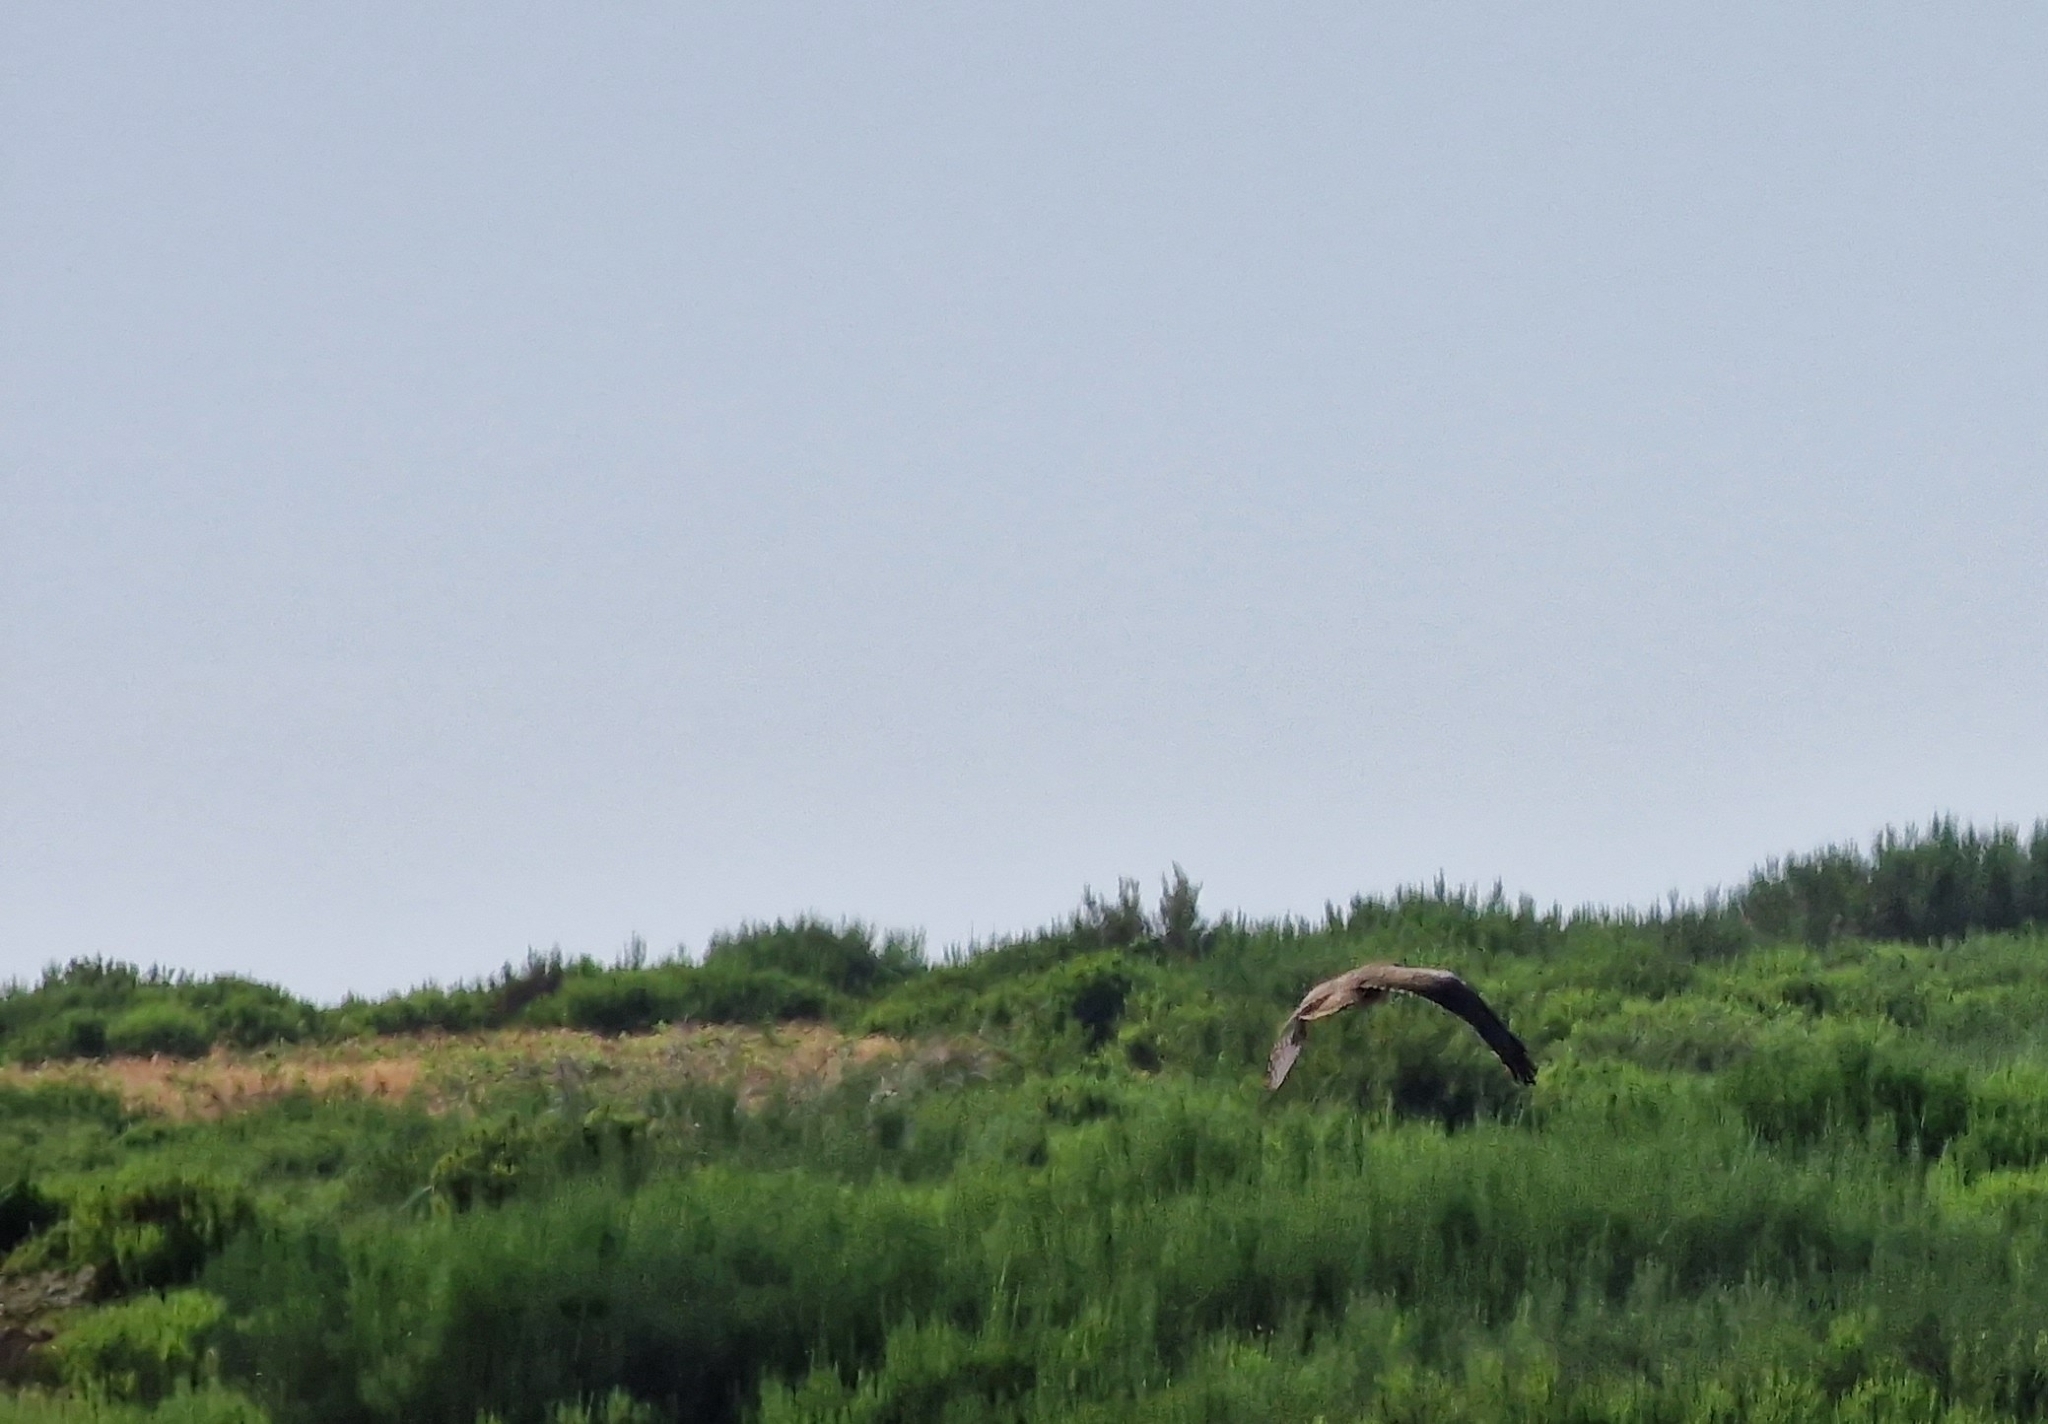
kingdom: Animalia
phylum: Chordata
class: Aves
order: Accipitriformes
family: Accipitridae
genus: Buteo
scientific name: Buteo buteo
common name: Common buzzard
